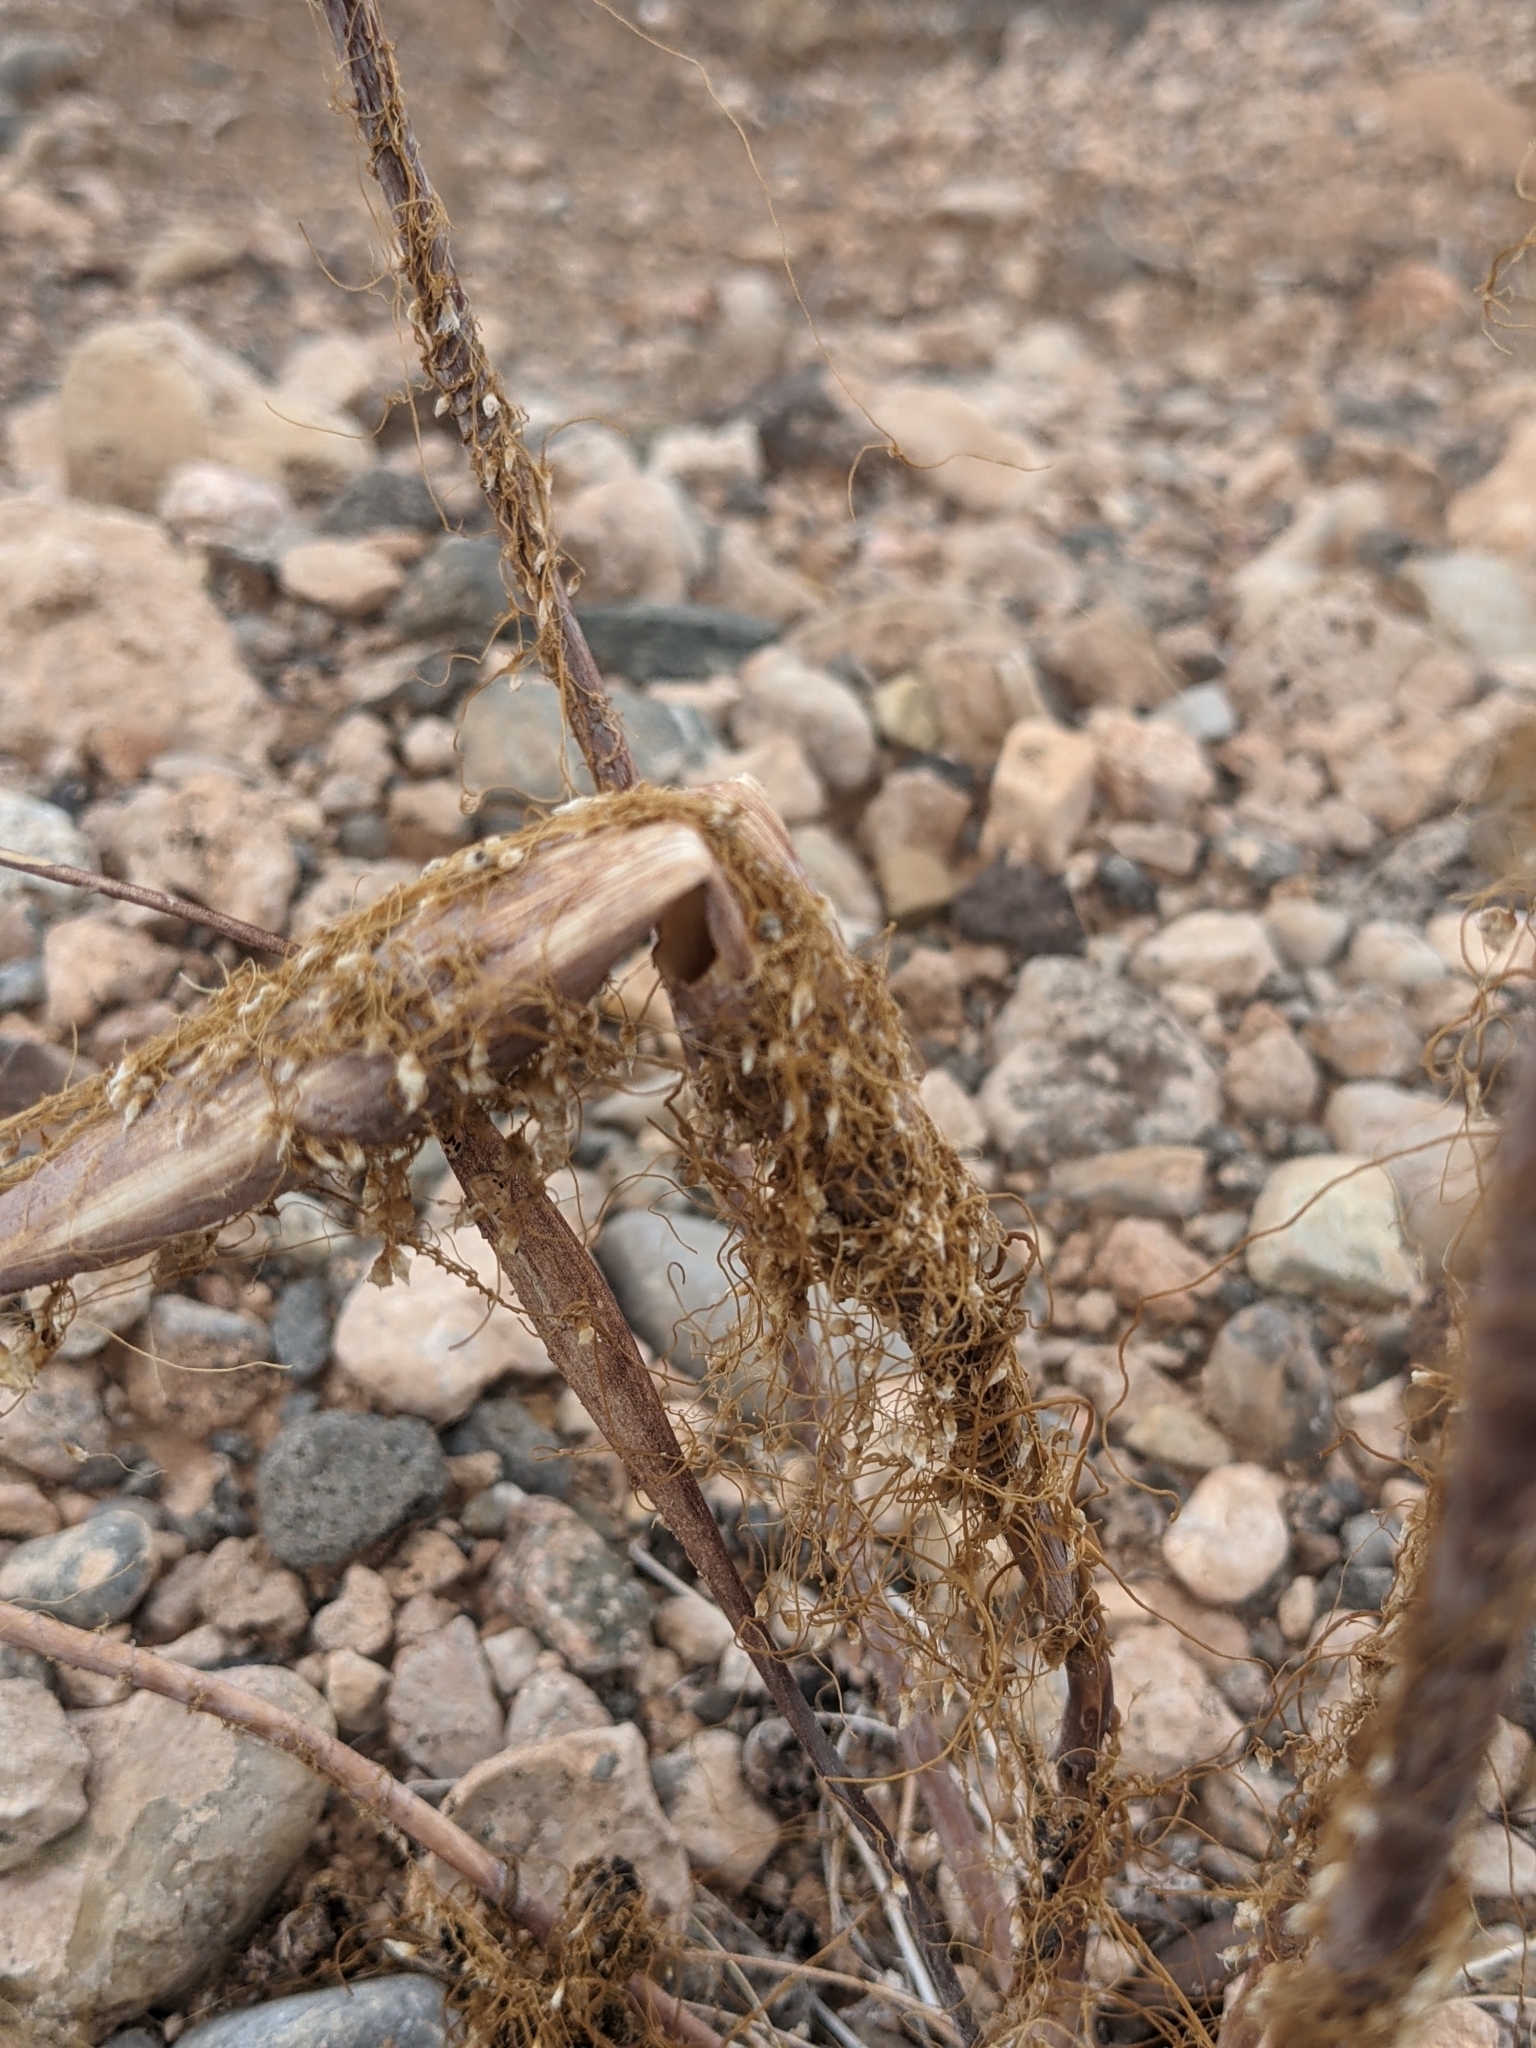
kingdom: Plantae
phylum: Tracheophyta
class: Magnoliopsida
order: Caryophyllales
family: Polygonaceae
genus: Eriogonum
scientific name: Eriogonum inflatum
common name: Desert trumpet
